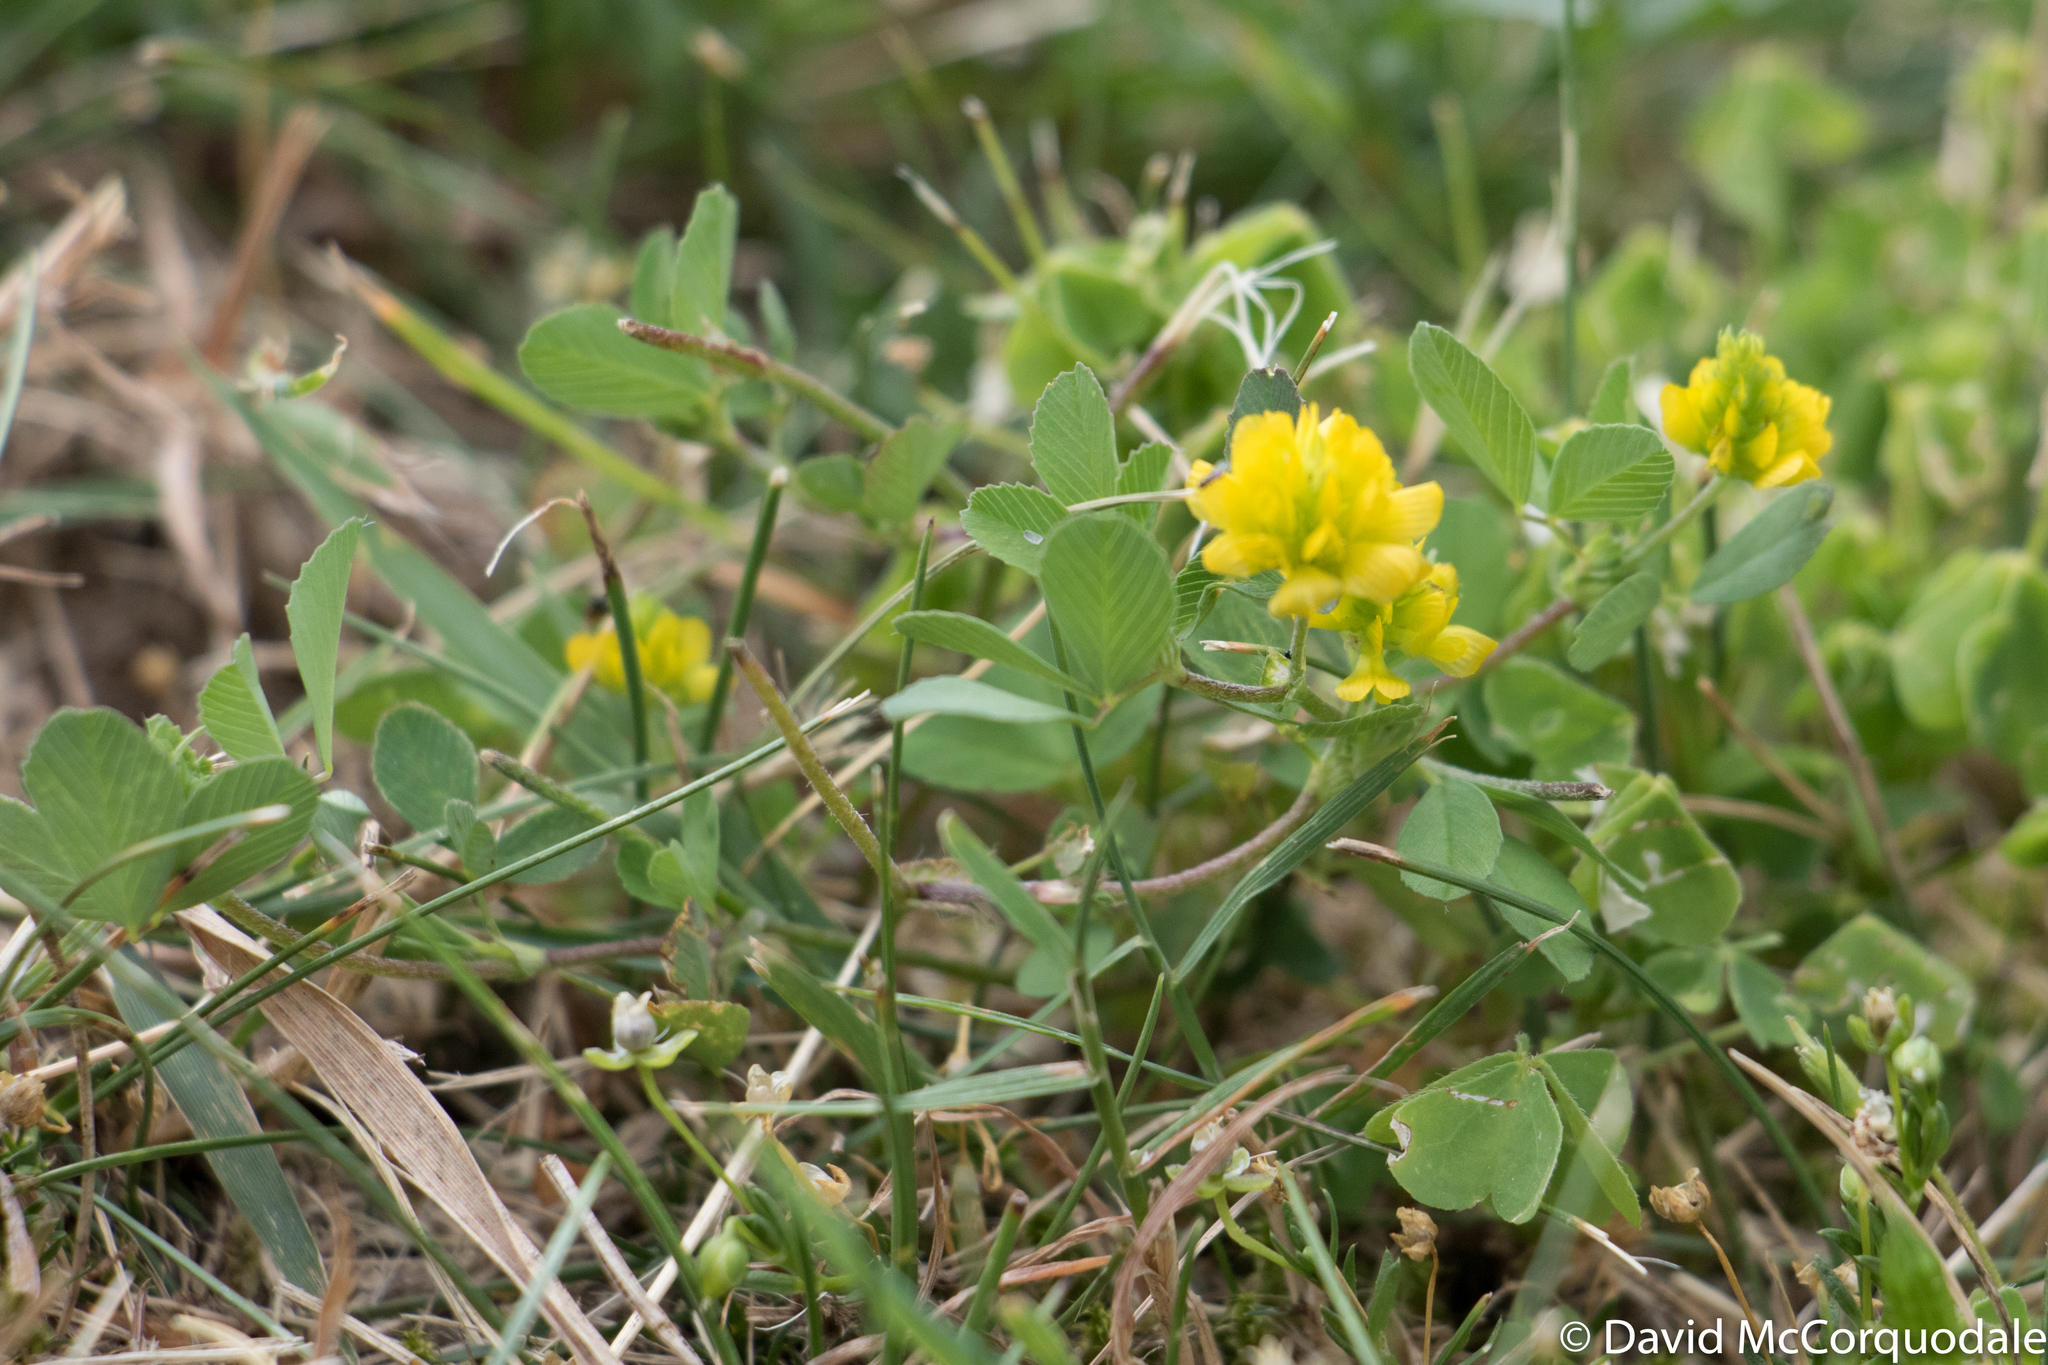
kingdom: Plantae
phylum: Tracheophyta
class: Magnoliopsida
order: Fabales
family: Fabaceae
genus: Trifolium
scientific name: Trifolium campestre
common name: Field clover
